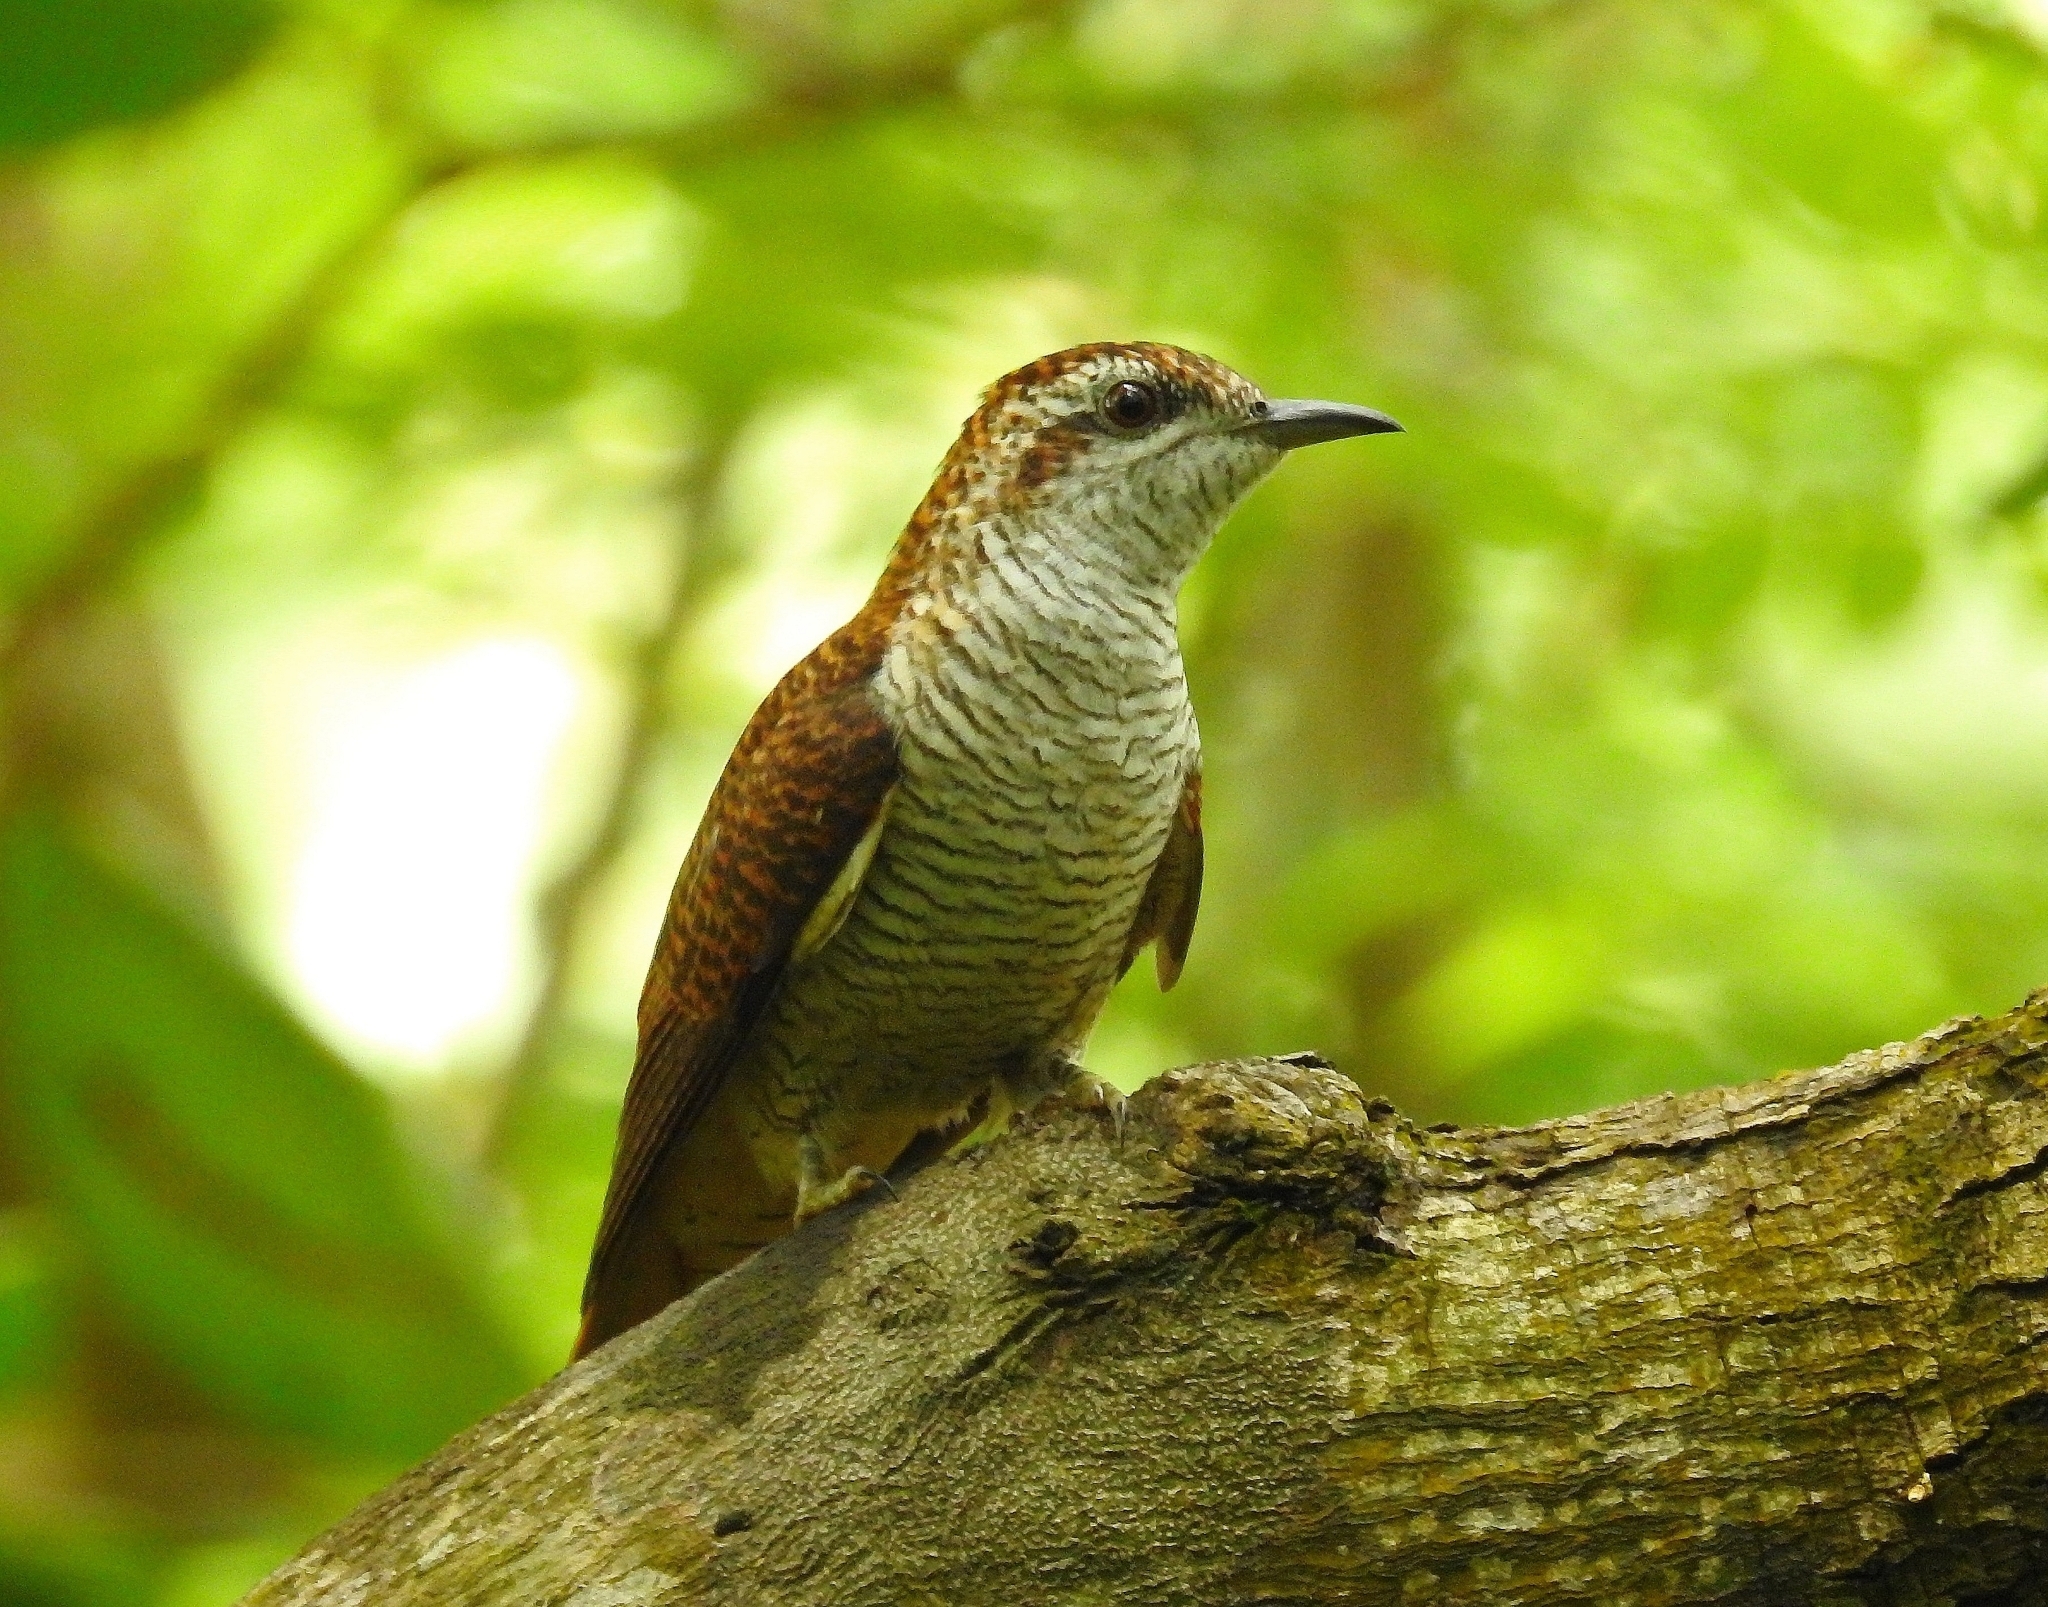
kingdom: Animalia
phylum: Chordata
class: Aves
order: Cuculiformes
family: Cuculidae
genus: Cacomantis
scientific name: Cacomantis sonneratii
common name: Banded bay cuckoo
